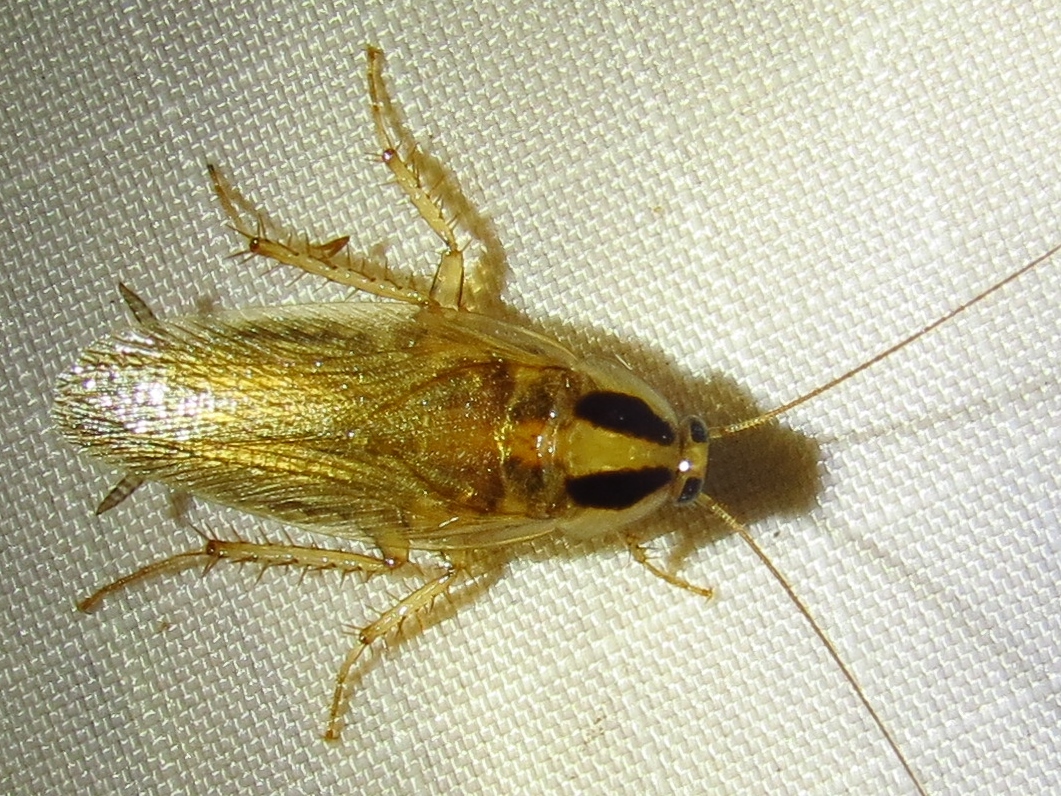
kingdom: Animalia
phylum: Arthropoda
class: Insecta
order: Blattodea
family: Ectobiidae
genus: Blattella
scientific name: Blattella vaga
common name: Field cockroach
